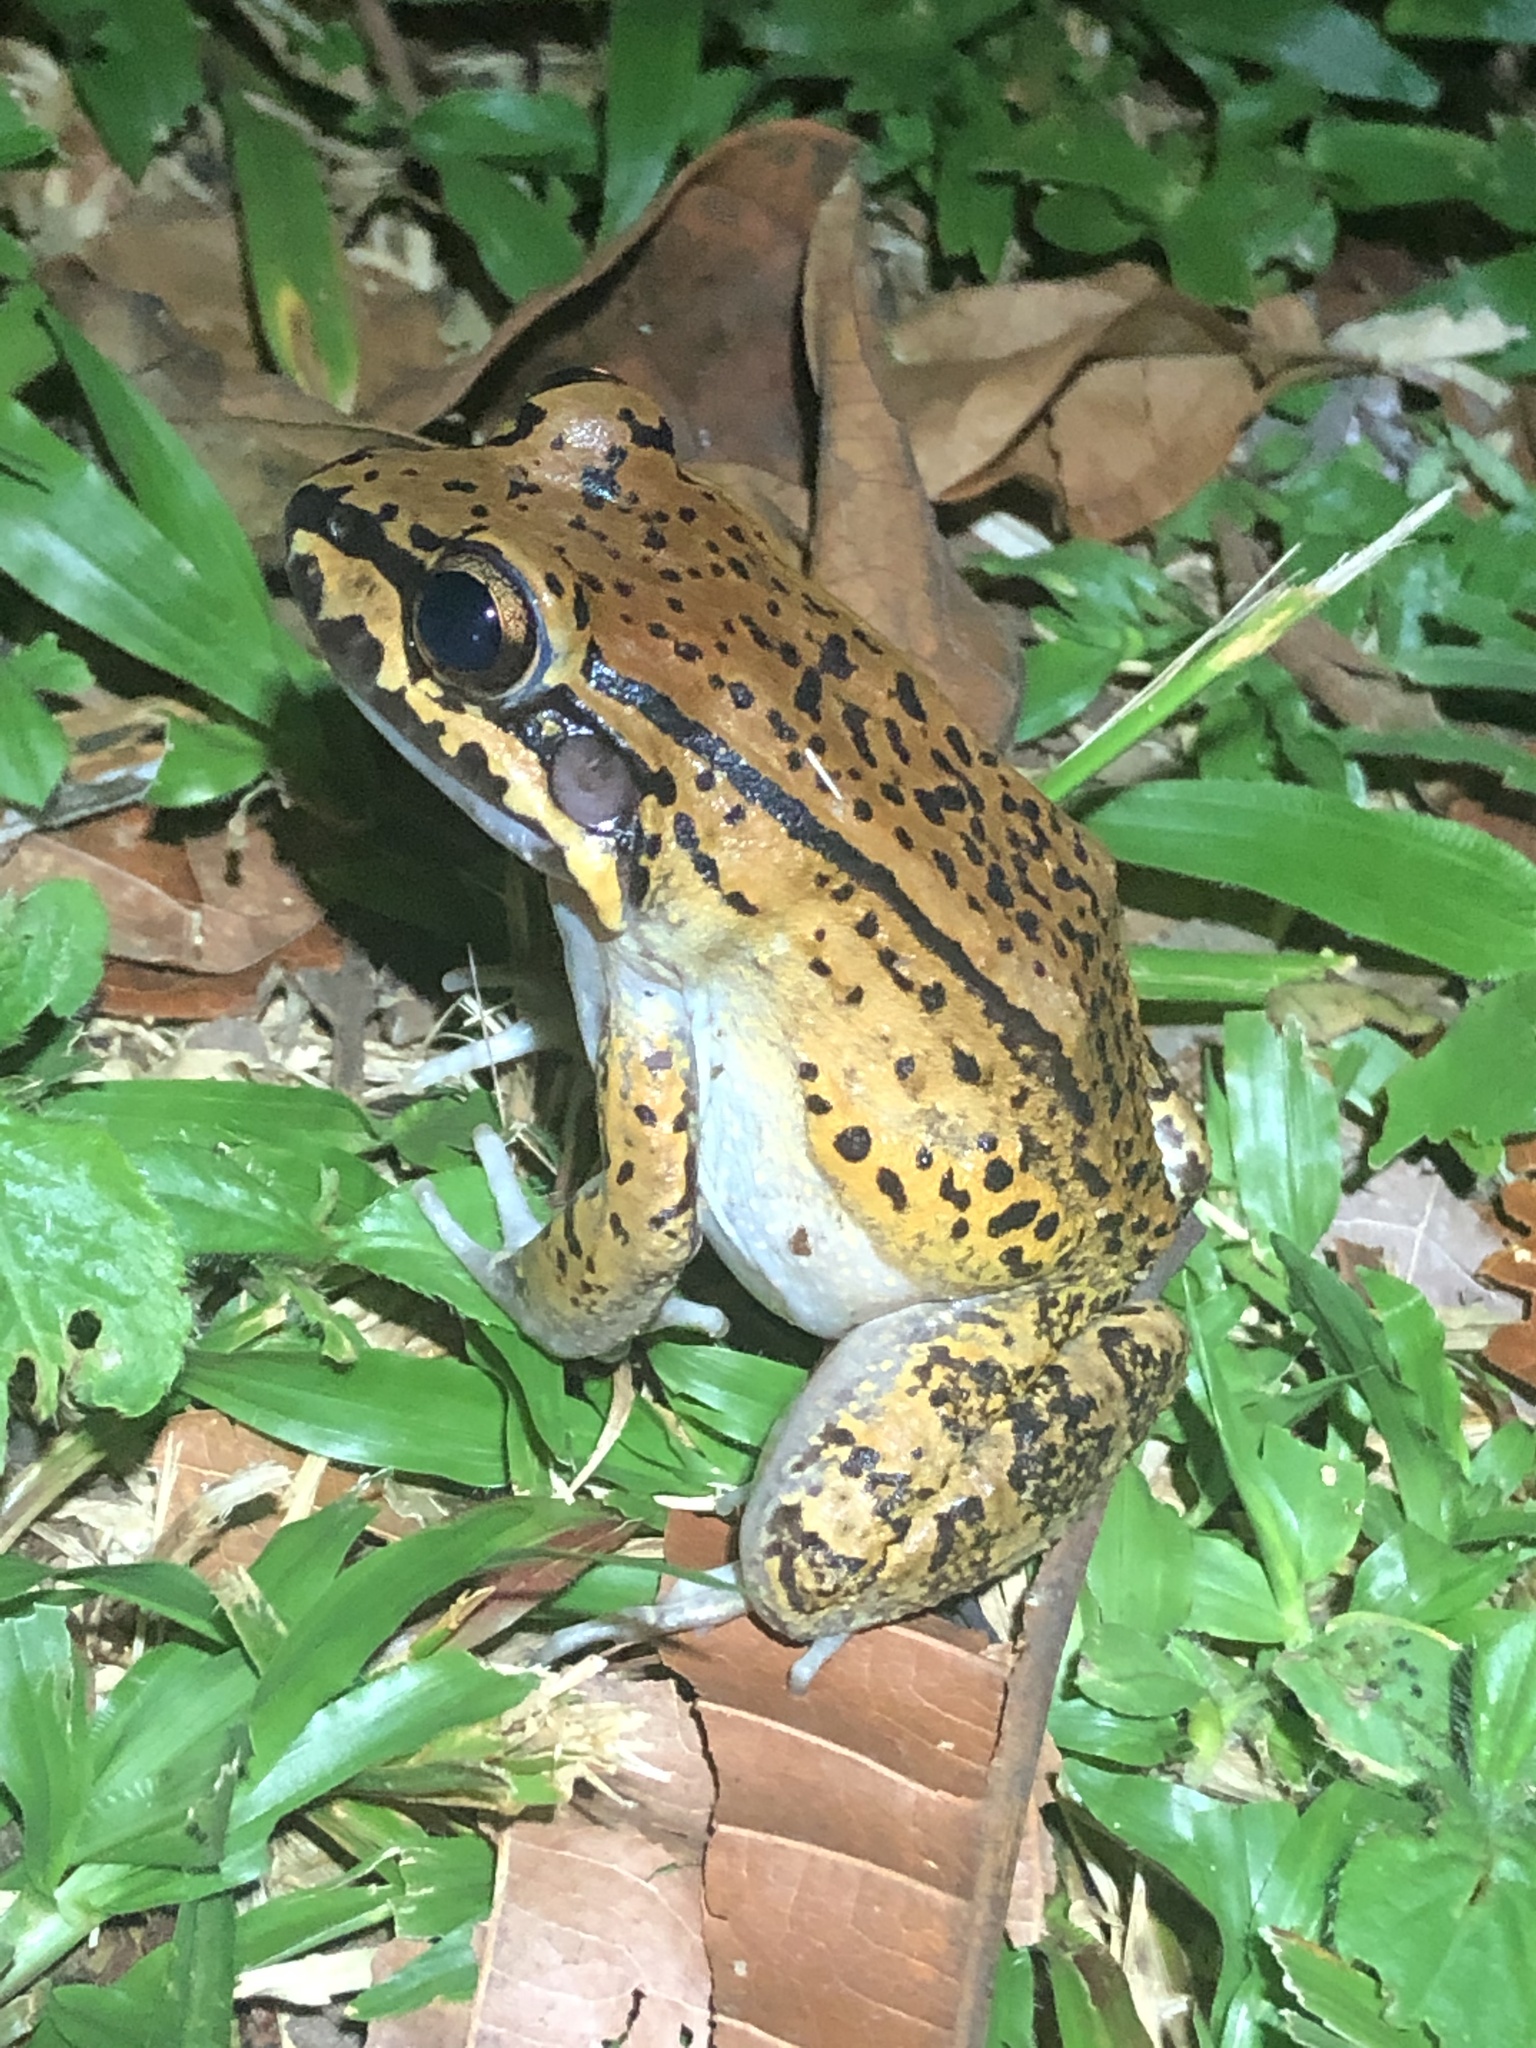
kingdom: Animalia
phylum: Chordata
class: Amphibia
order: Anura
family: Leptodactylidae
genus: Leptodactylus
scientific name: Leptodactylus rhodonotus
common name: Peru white-lipped frog
